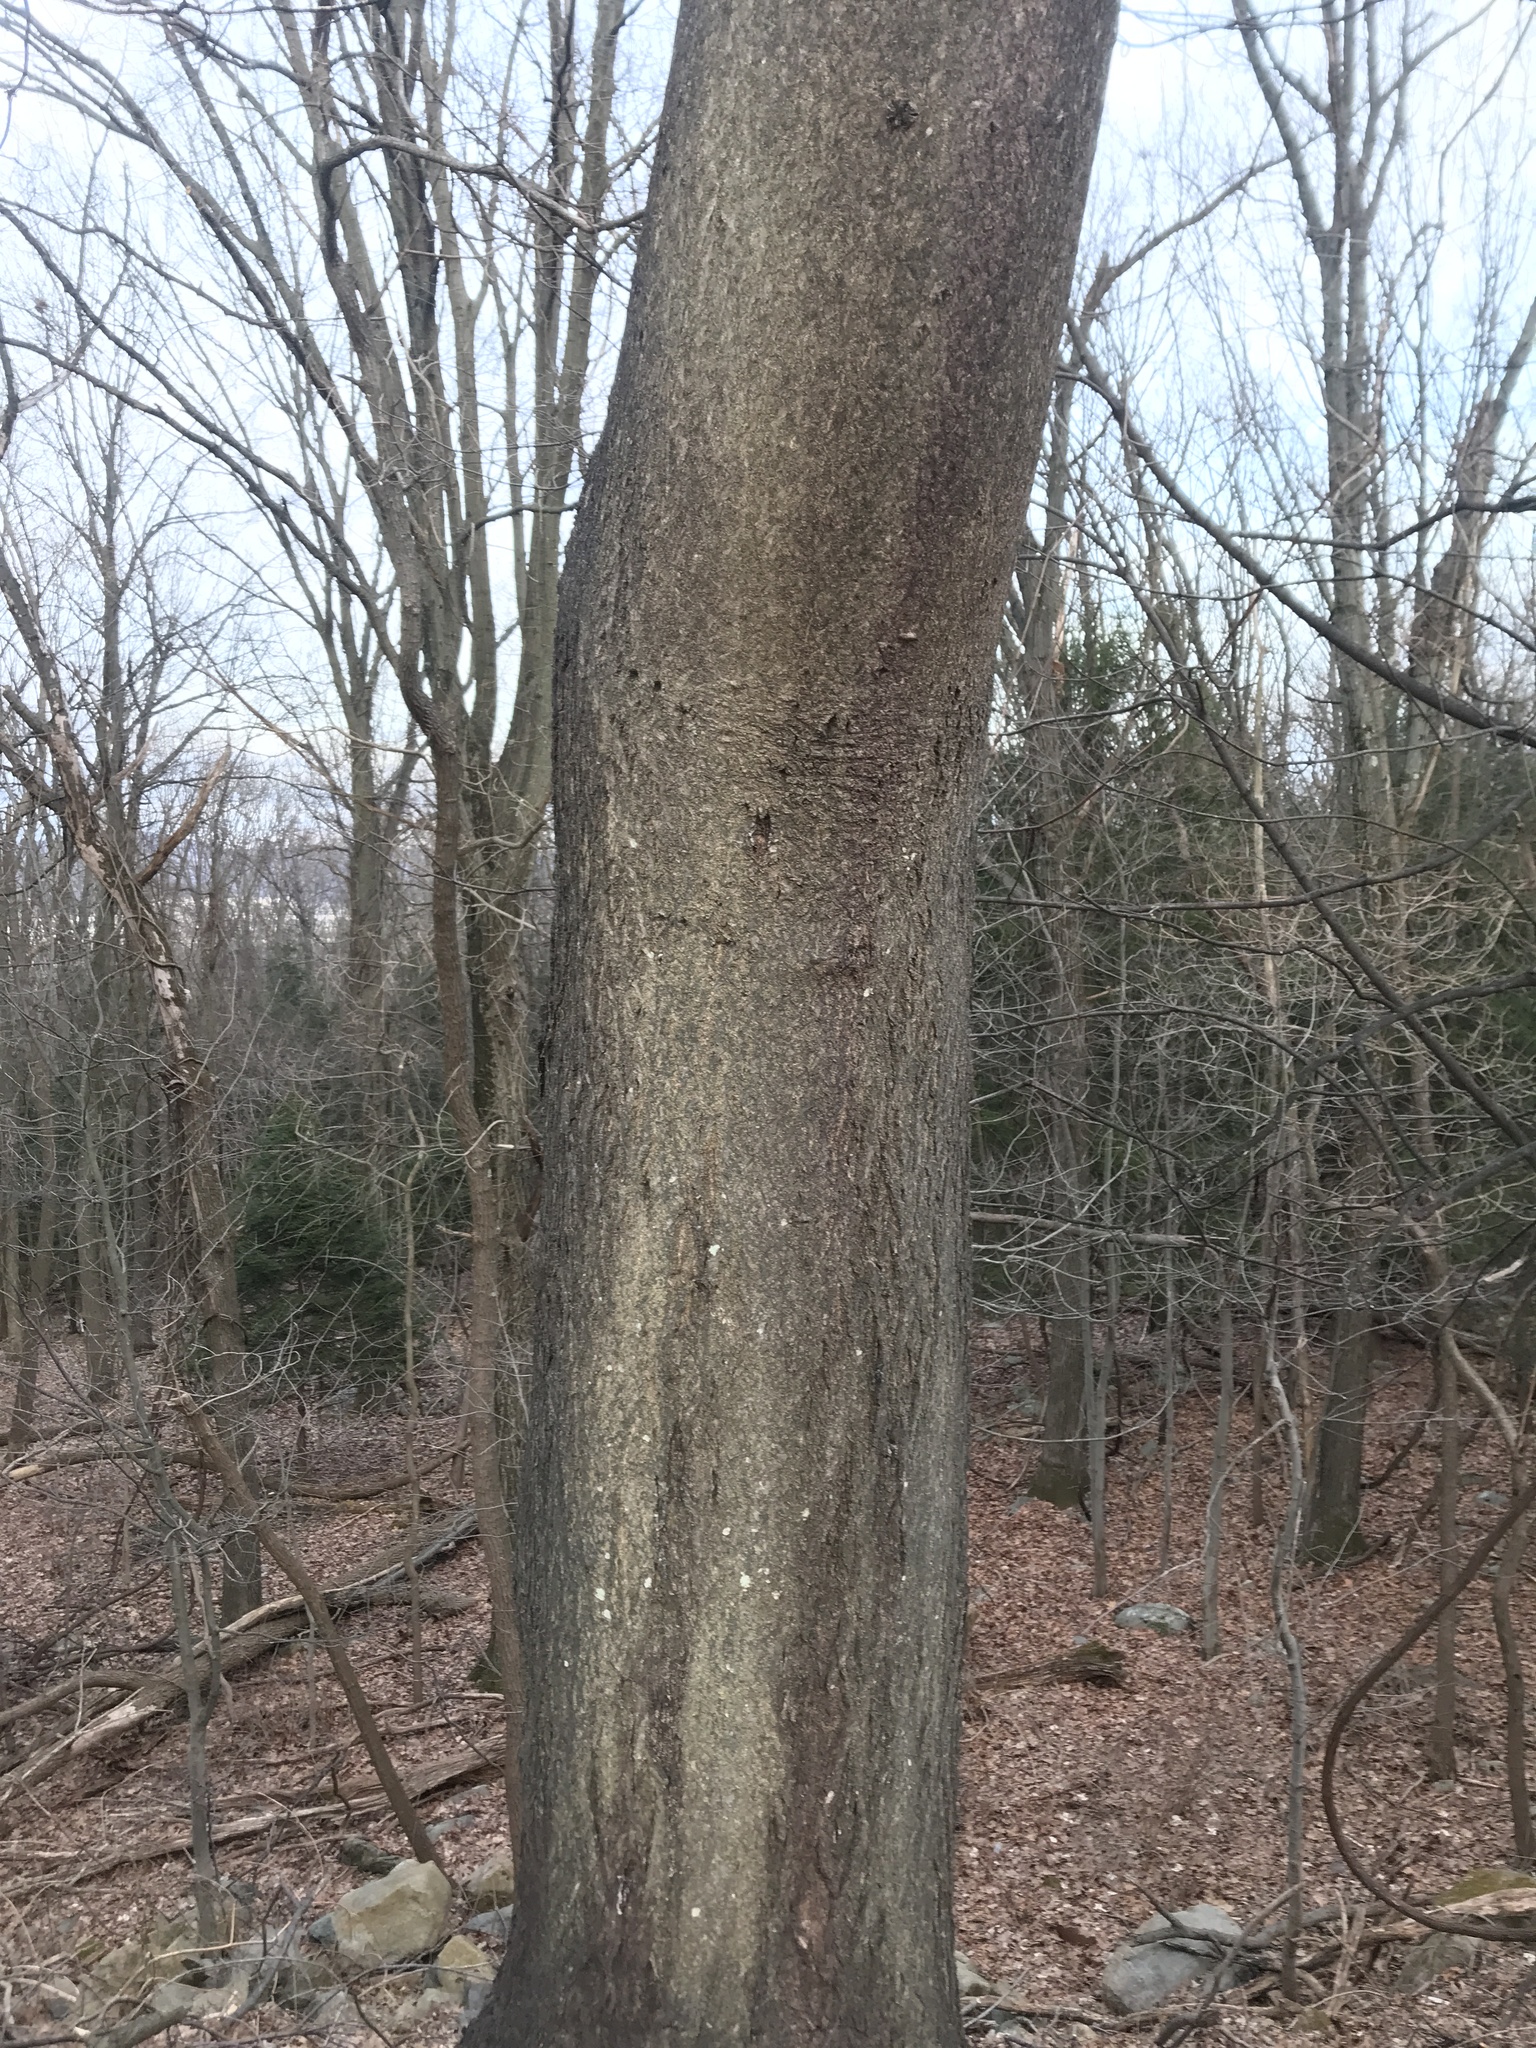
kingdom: Plantae
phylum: Tracheophyta
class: Magnoliopsida
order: Sapindales
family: Simaroubaceae
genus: Ailanthus
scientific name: Ailanthus altissima
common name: Tree-of-heaven
